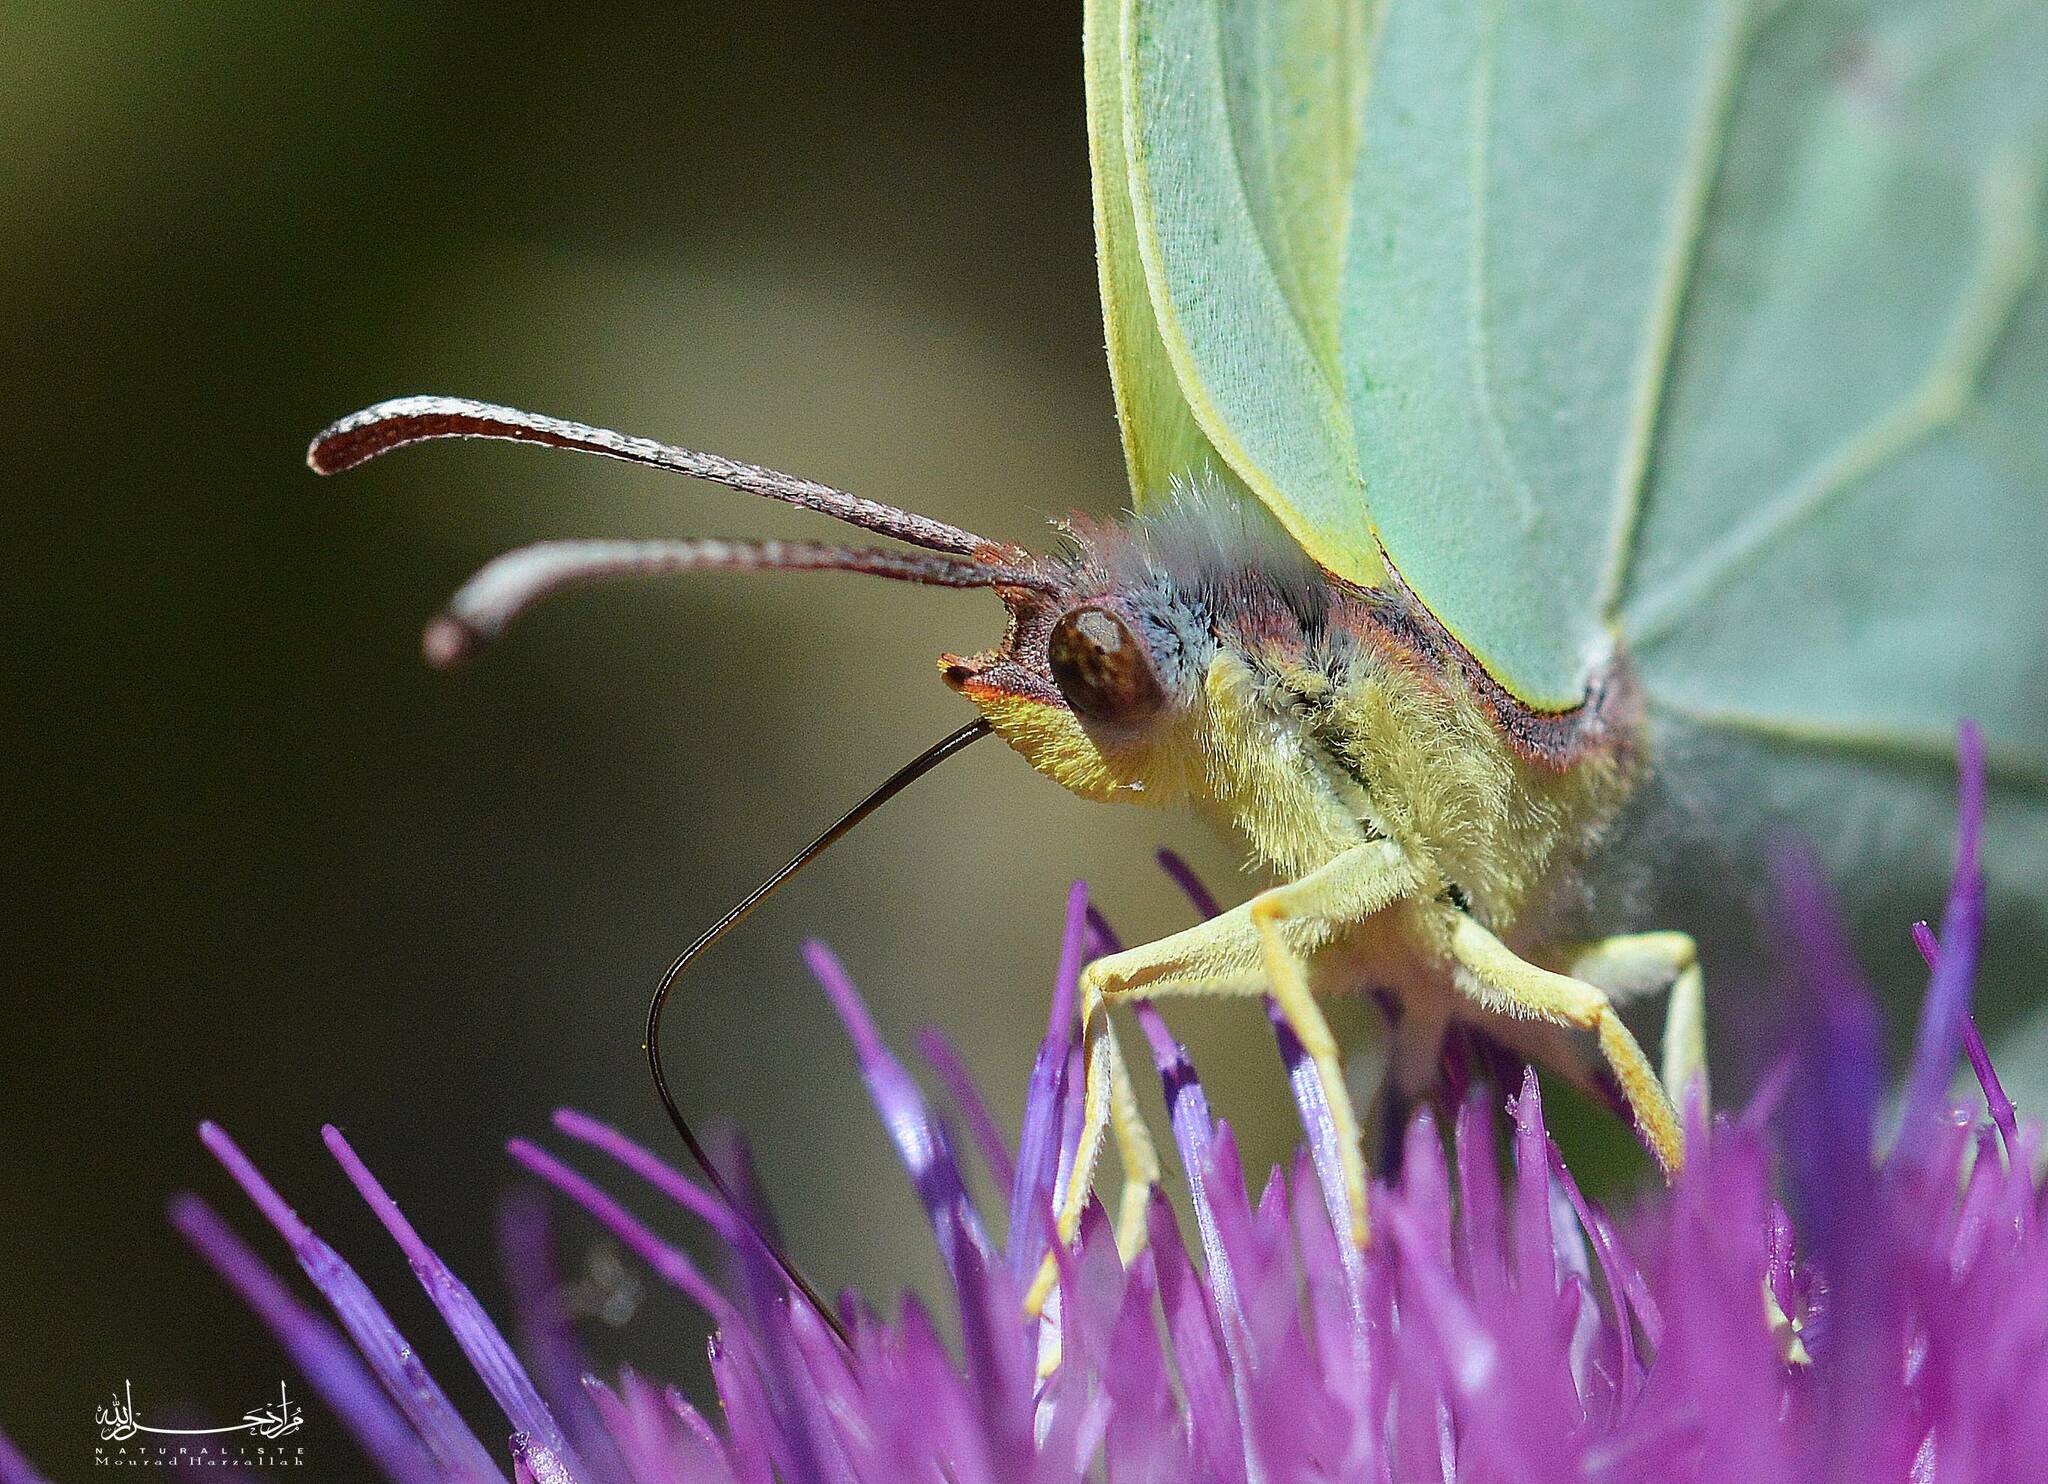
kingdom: Animalia
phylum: Arthropoda
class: Insecta
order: Lepidoptera
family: Pieridae
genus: Gonepteryx
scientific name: Gonepteryx cleopatra
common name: Cleopatra
